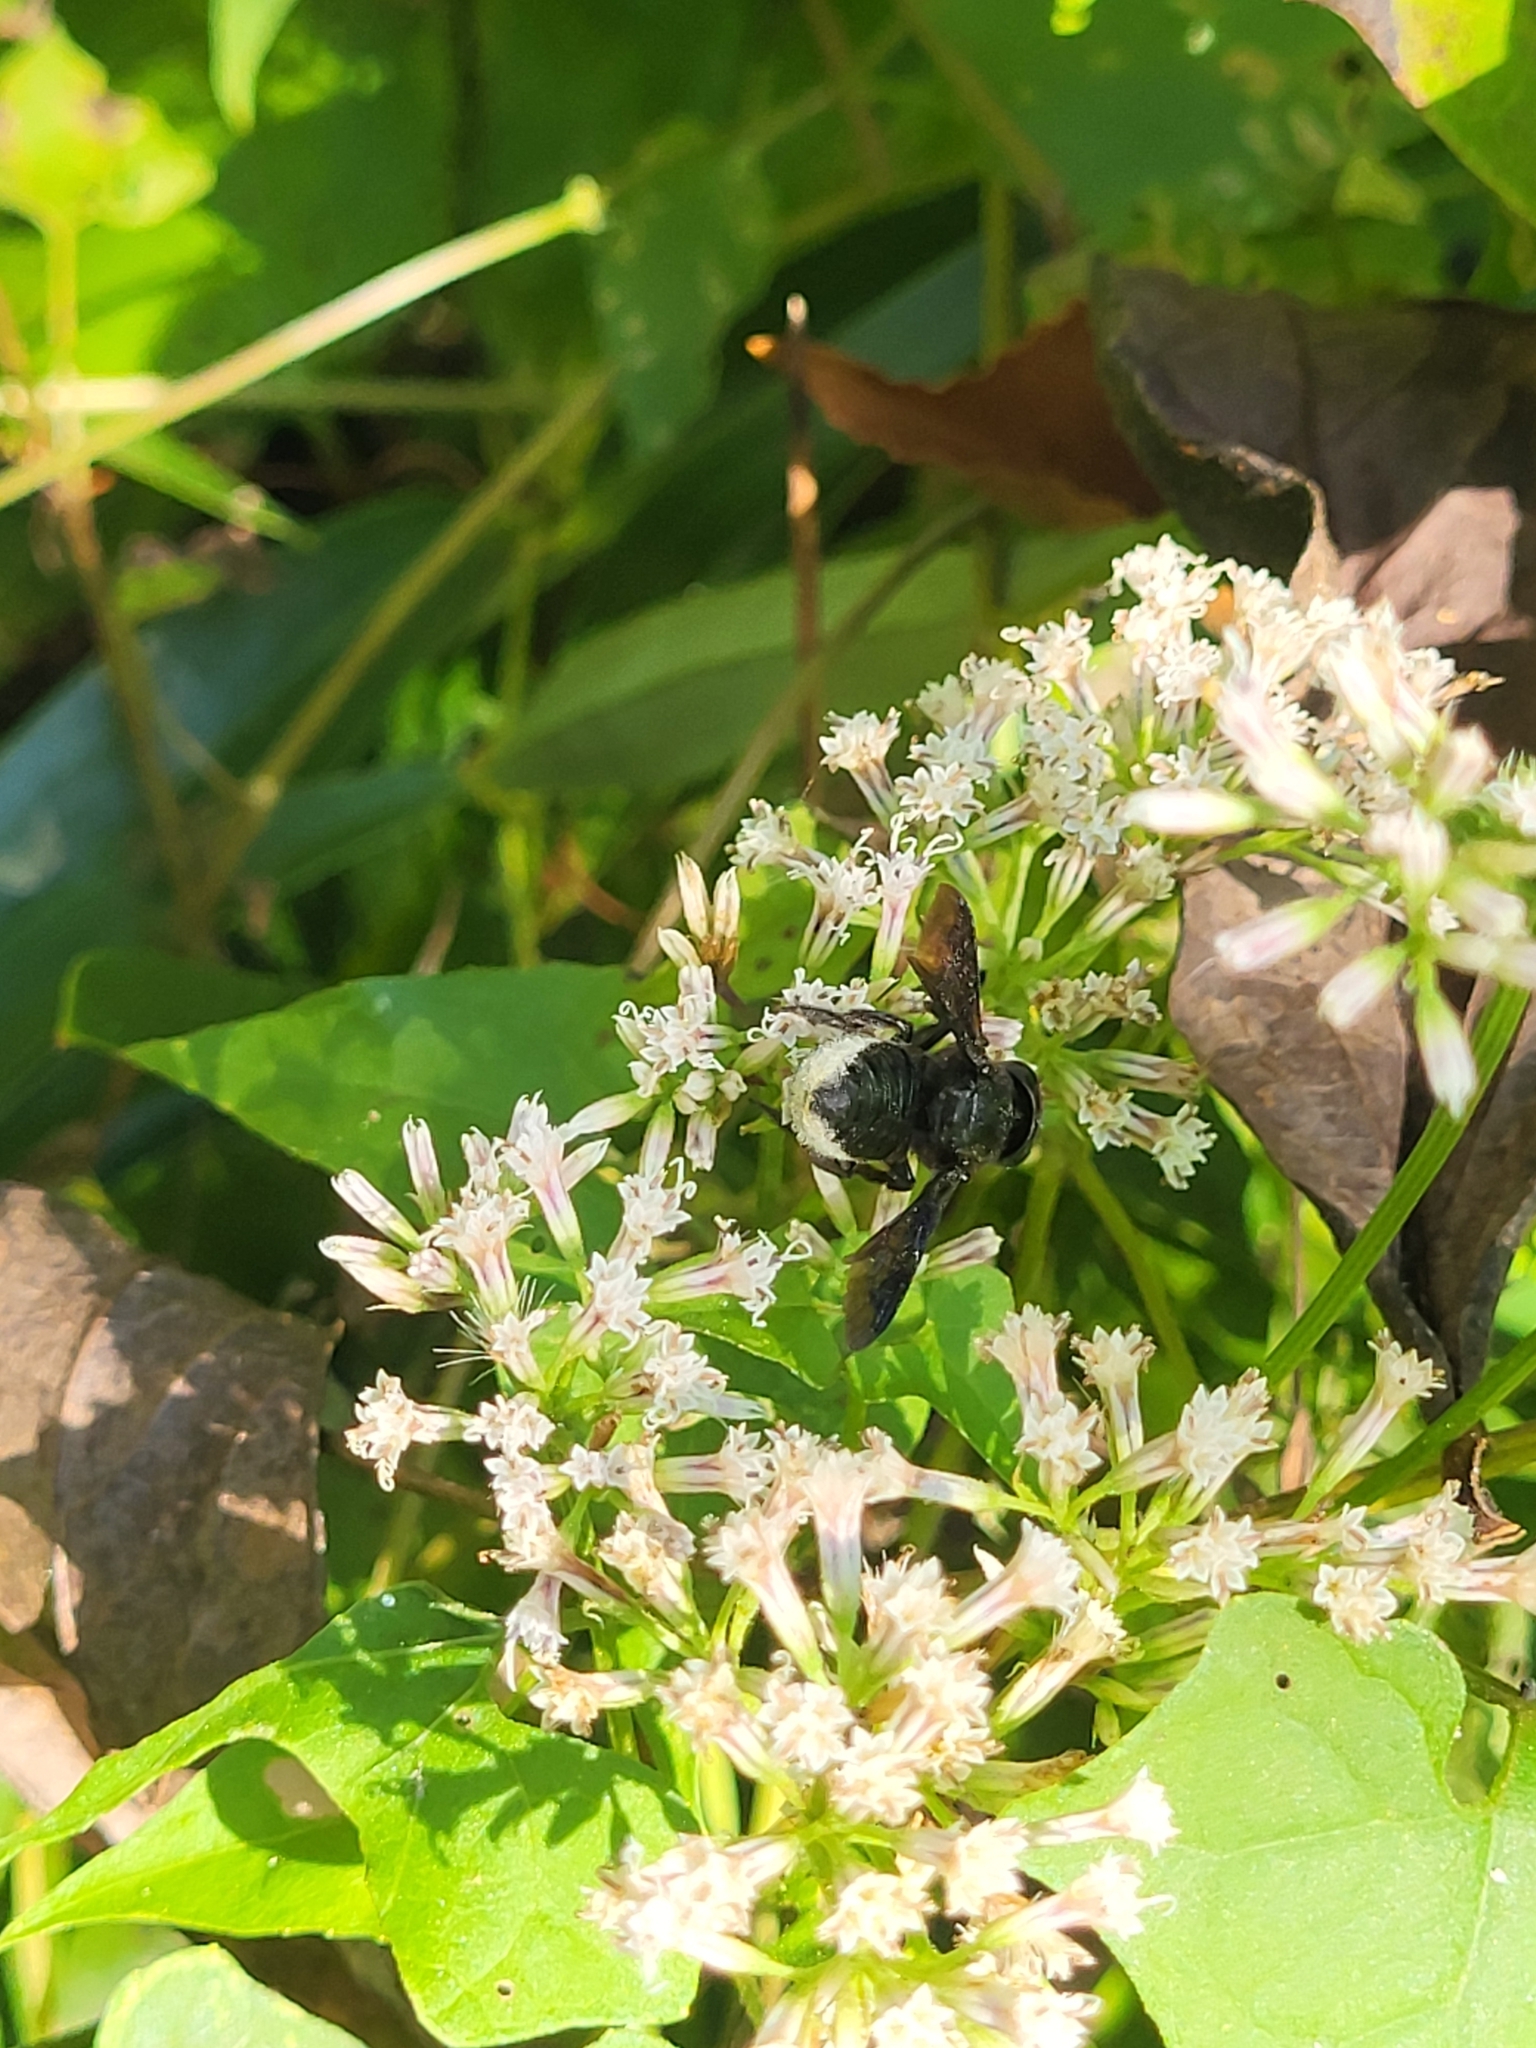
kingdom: Animalia
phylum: Arthropoda
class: Insecta
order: Hymenoptera
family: Megachilidae
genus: Megachile
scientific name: Megachile xylocopoides
